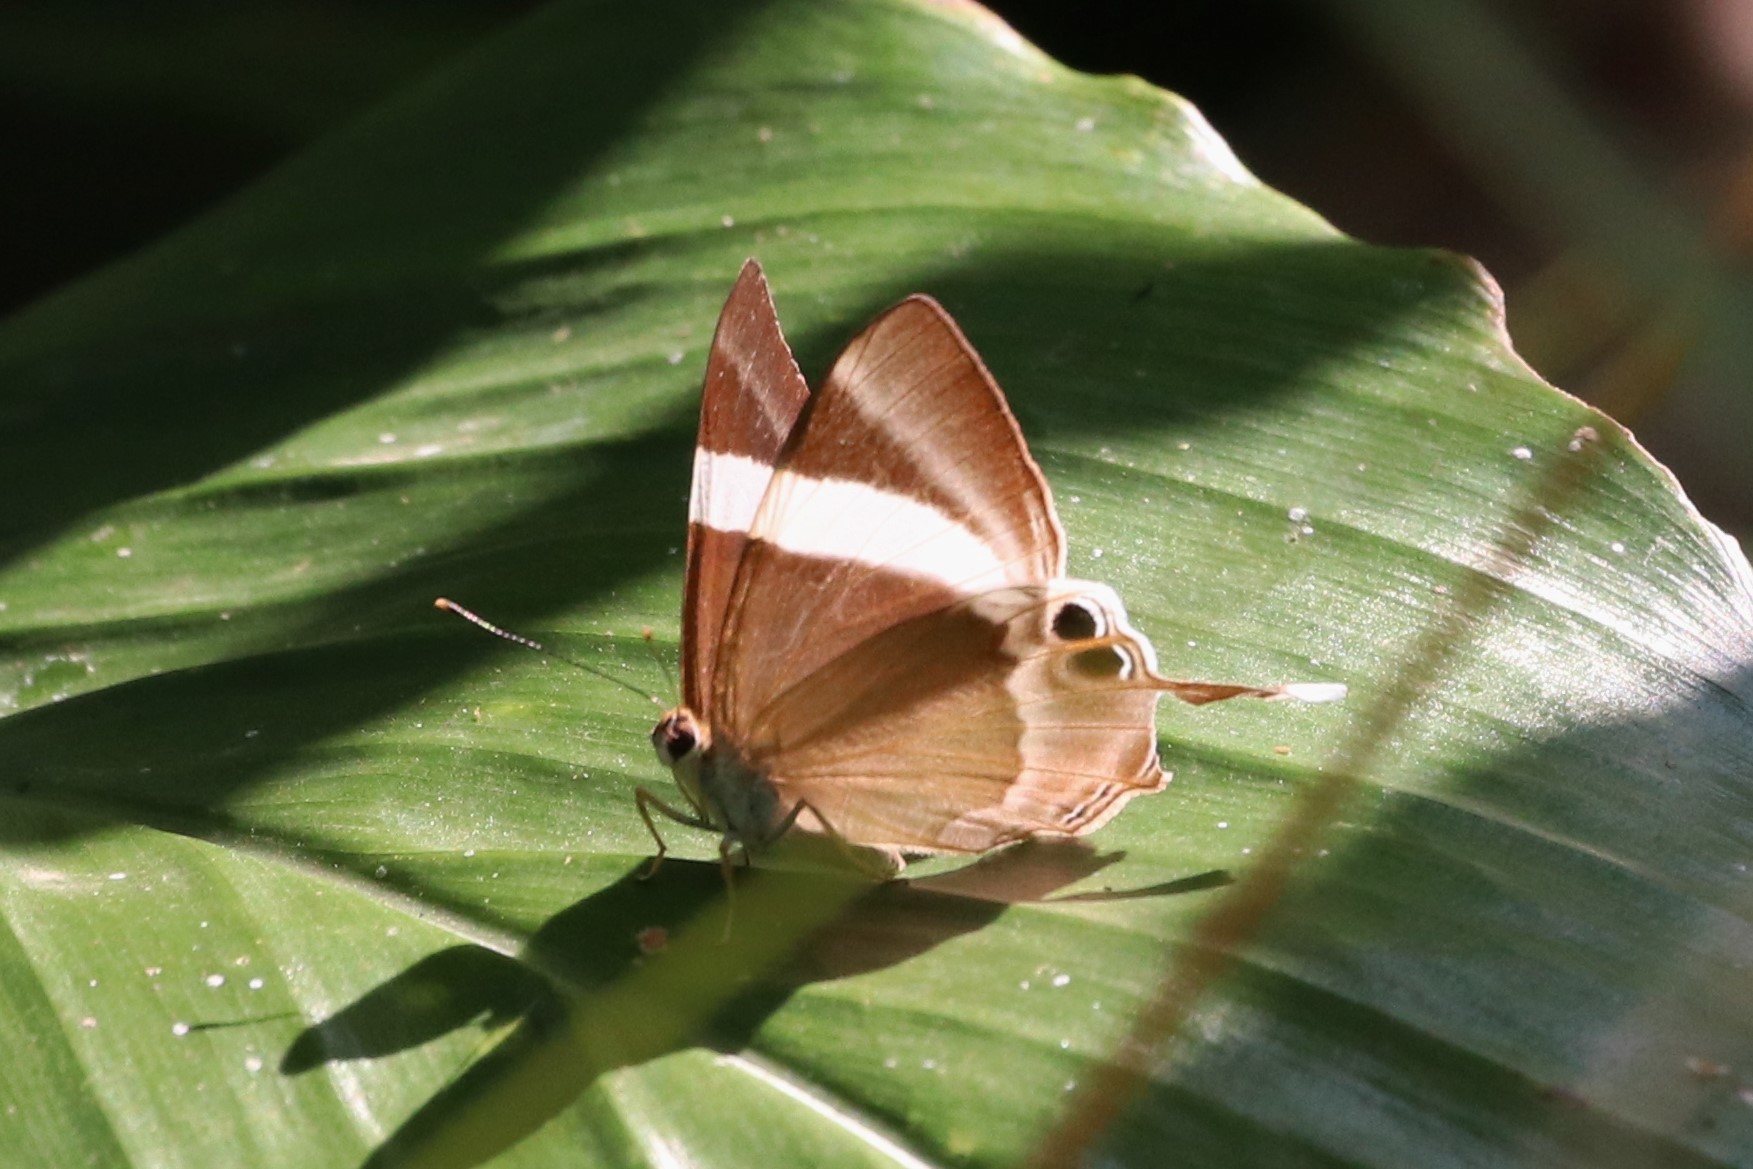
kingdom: Animalia
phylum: Arthropoda
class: Insecta
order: Lepidoptera
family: Lycaenidae
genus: Abisara
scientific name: Abisara neophron
